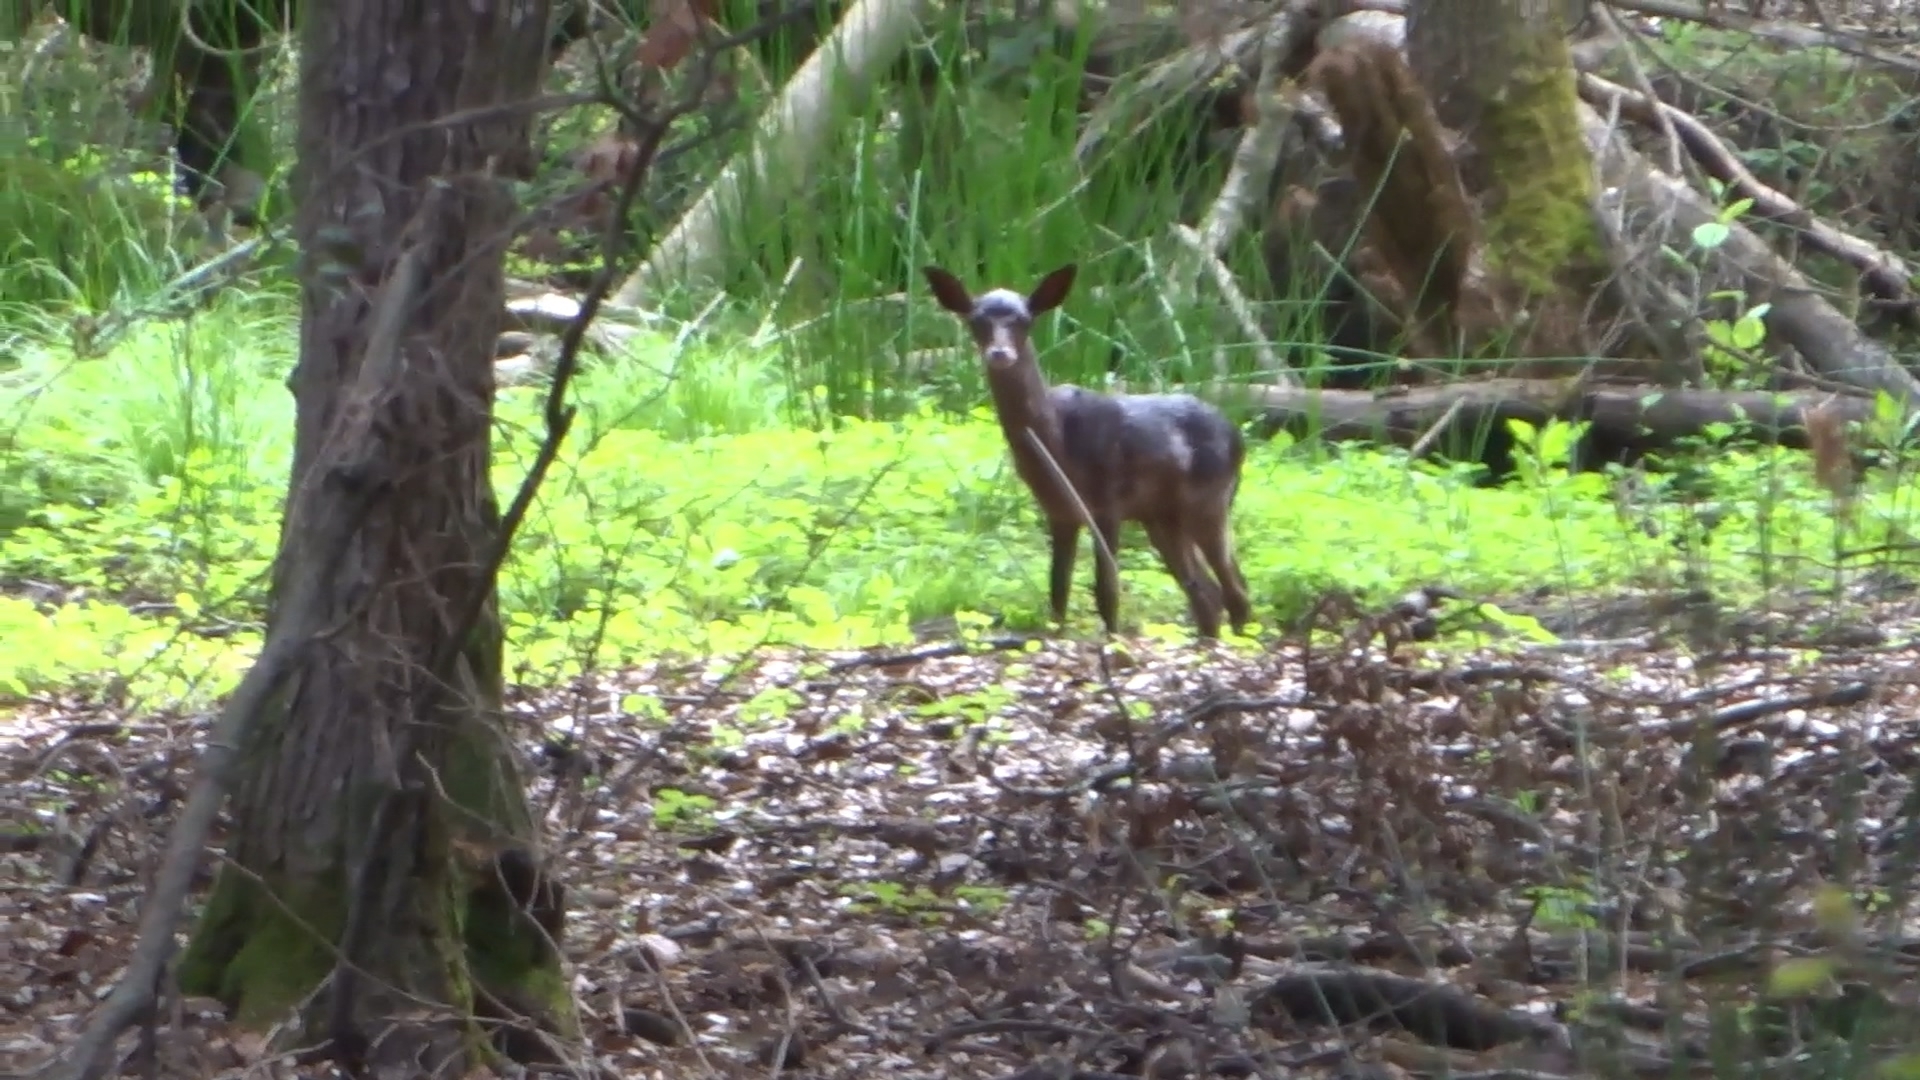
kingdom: Animalia
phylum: Chordata
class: Mammalia
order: Artiodactyla
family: Cervidae
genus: Dama
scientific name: Dama dama
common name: Fallow deer
